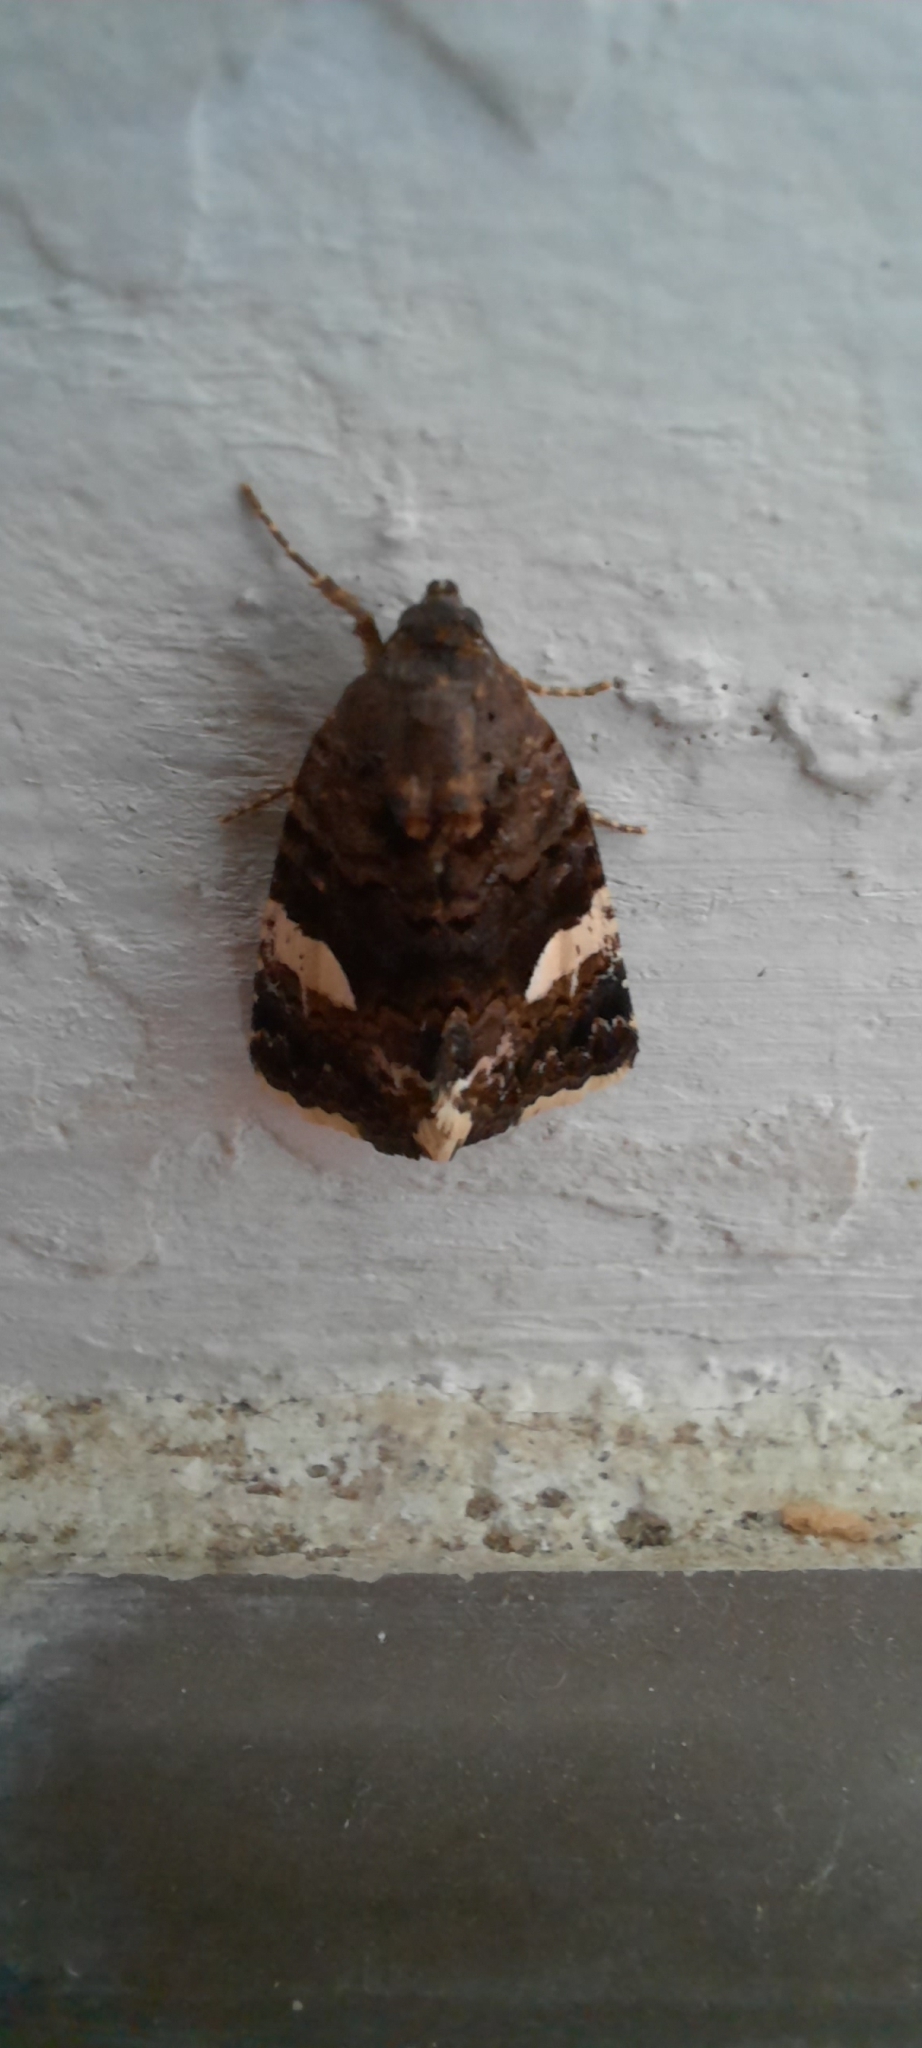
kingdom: Animalia
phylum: Arthropoda
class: Insecta
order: Lepidoptera
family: Erebidae
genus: Tyta
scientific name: Tyta luctuosa
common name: Four-spotted
